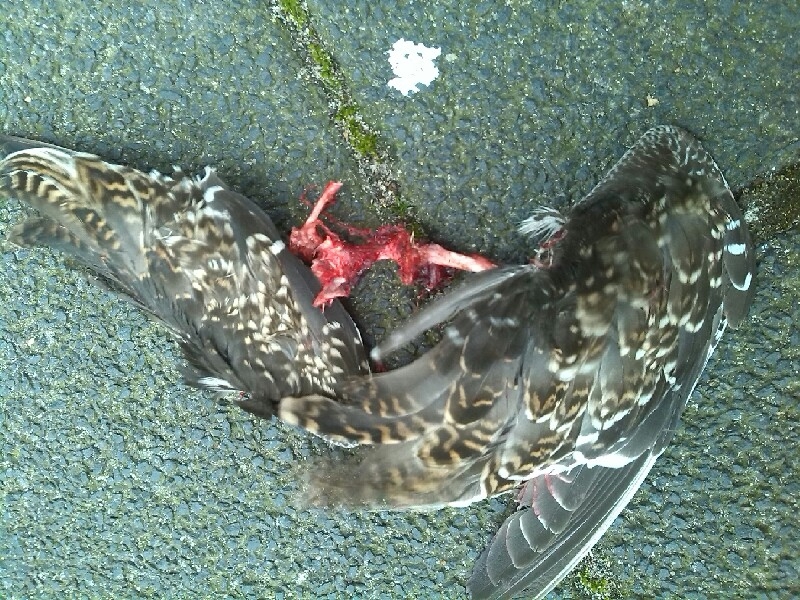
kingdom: Animalia
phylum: Chordata
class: Aves
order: Charadriiformes
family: Scolopacidae
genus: Gallinago
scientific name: Gallinago gallinago
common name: Common snipe
